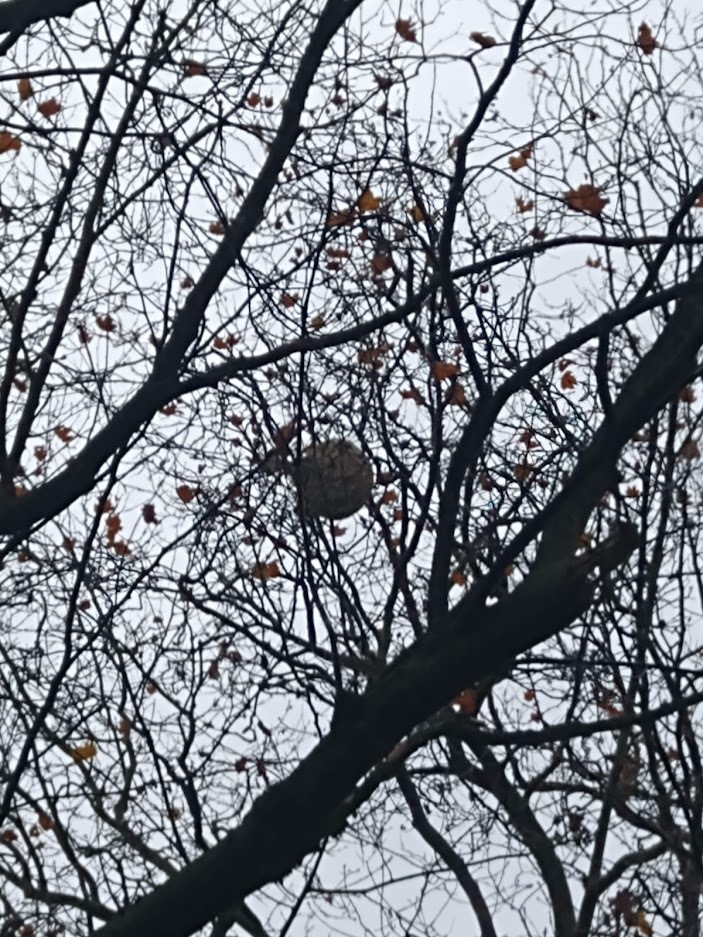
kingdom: Animalia
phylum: Arthropoda
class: Insecta
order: Hymenoptera
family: Vespidae
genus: Vespa
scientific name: Vespa velutina
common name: Asian hornet
